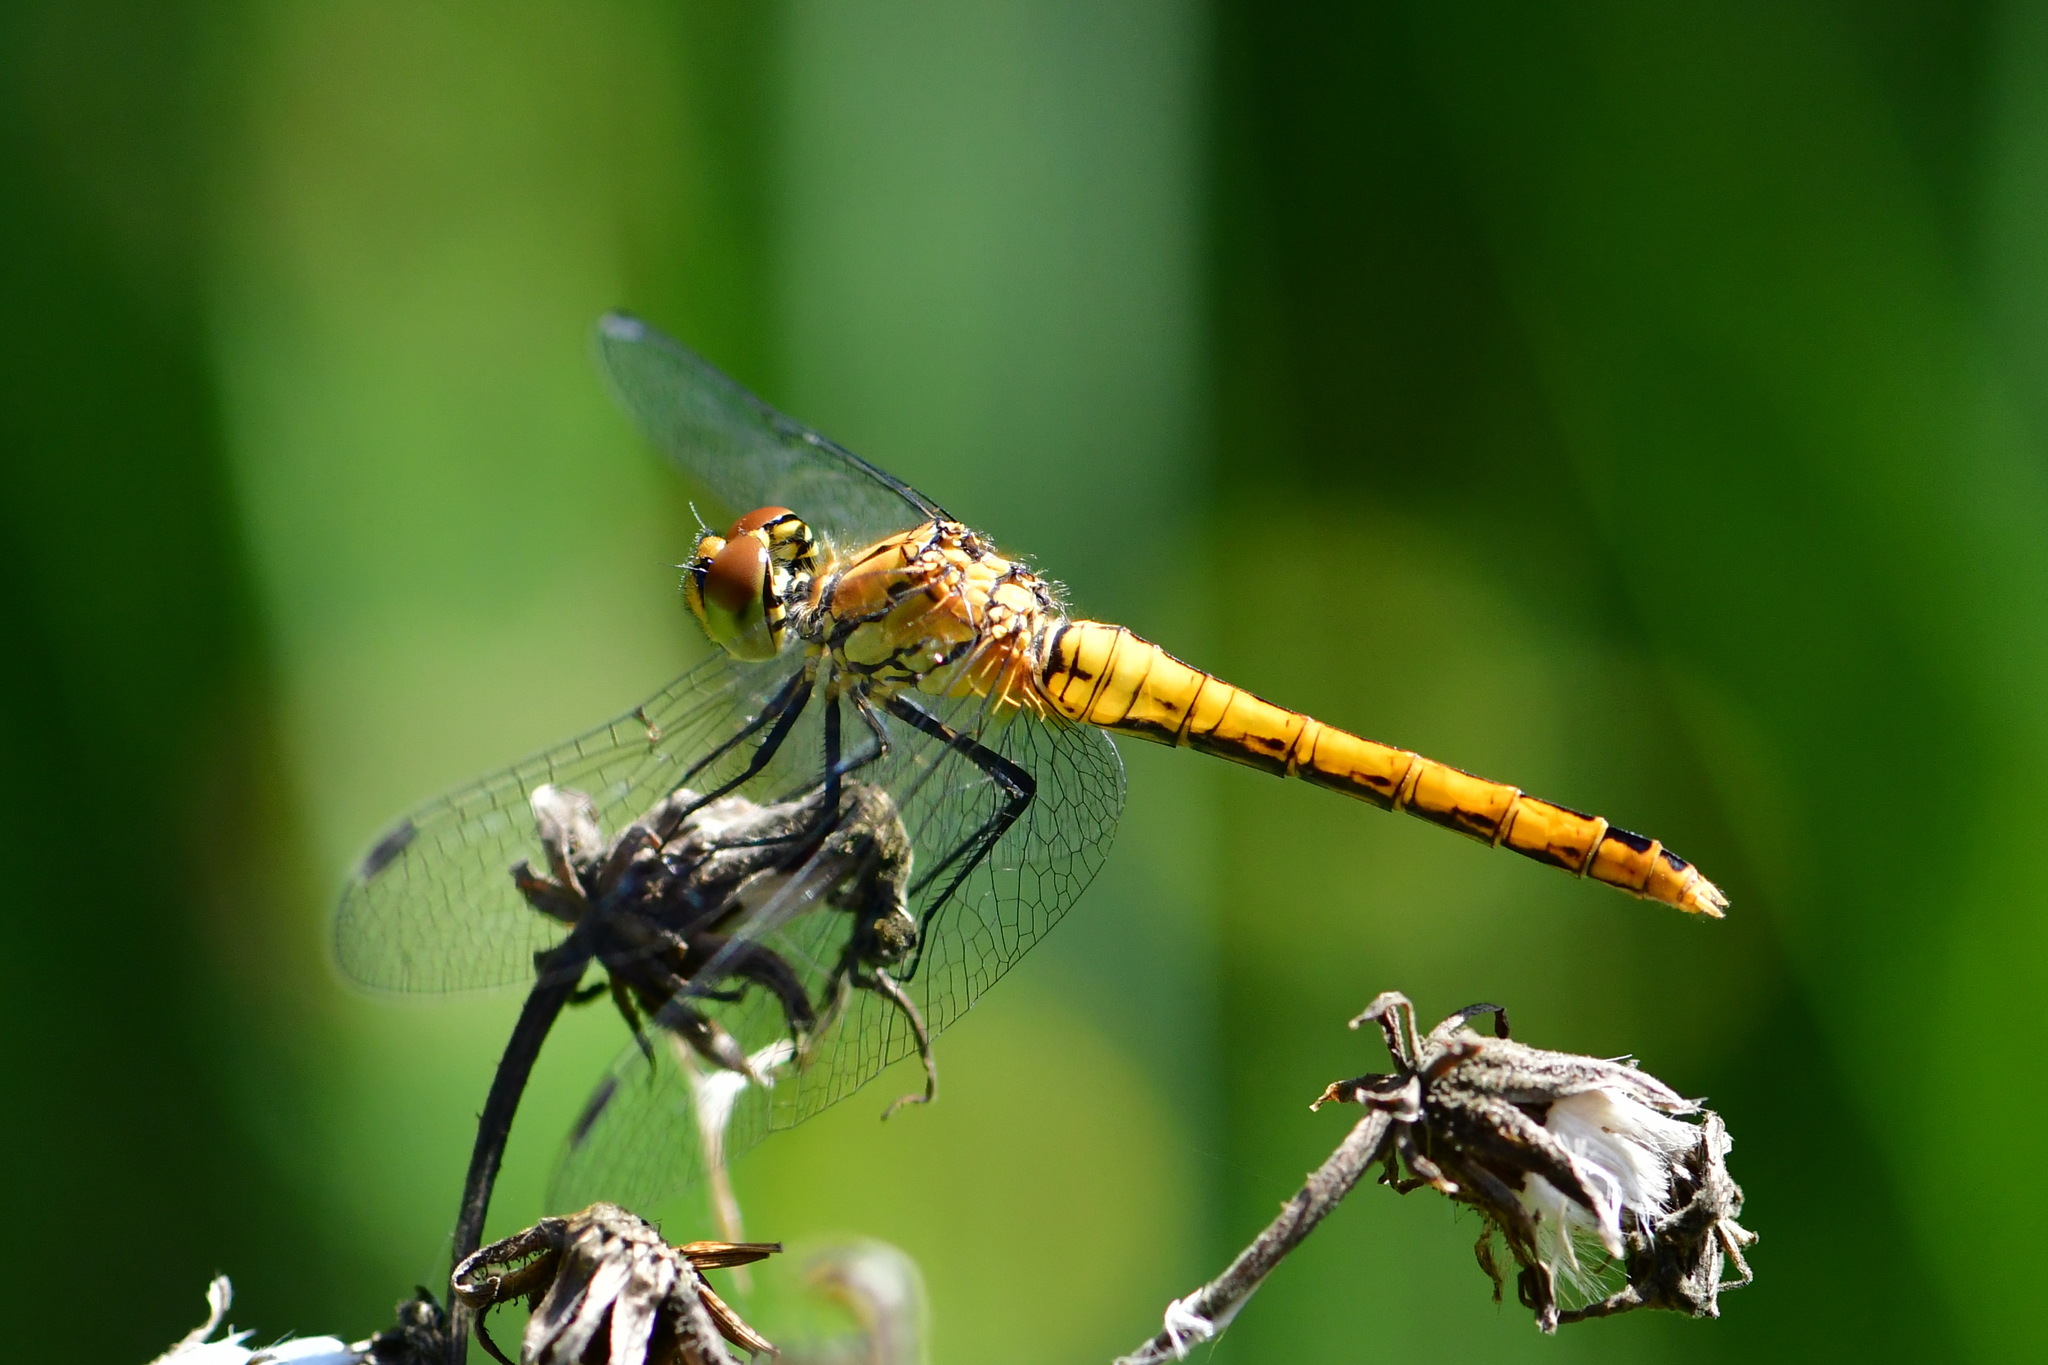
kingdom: Animalia
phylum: Arthropoda
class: Insecta
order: Odonata
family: Libellulidae
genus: Sympetrum
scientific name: Sympetrum sanguineum
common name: Ruddy darter
